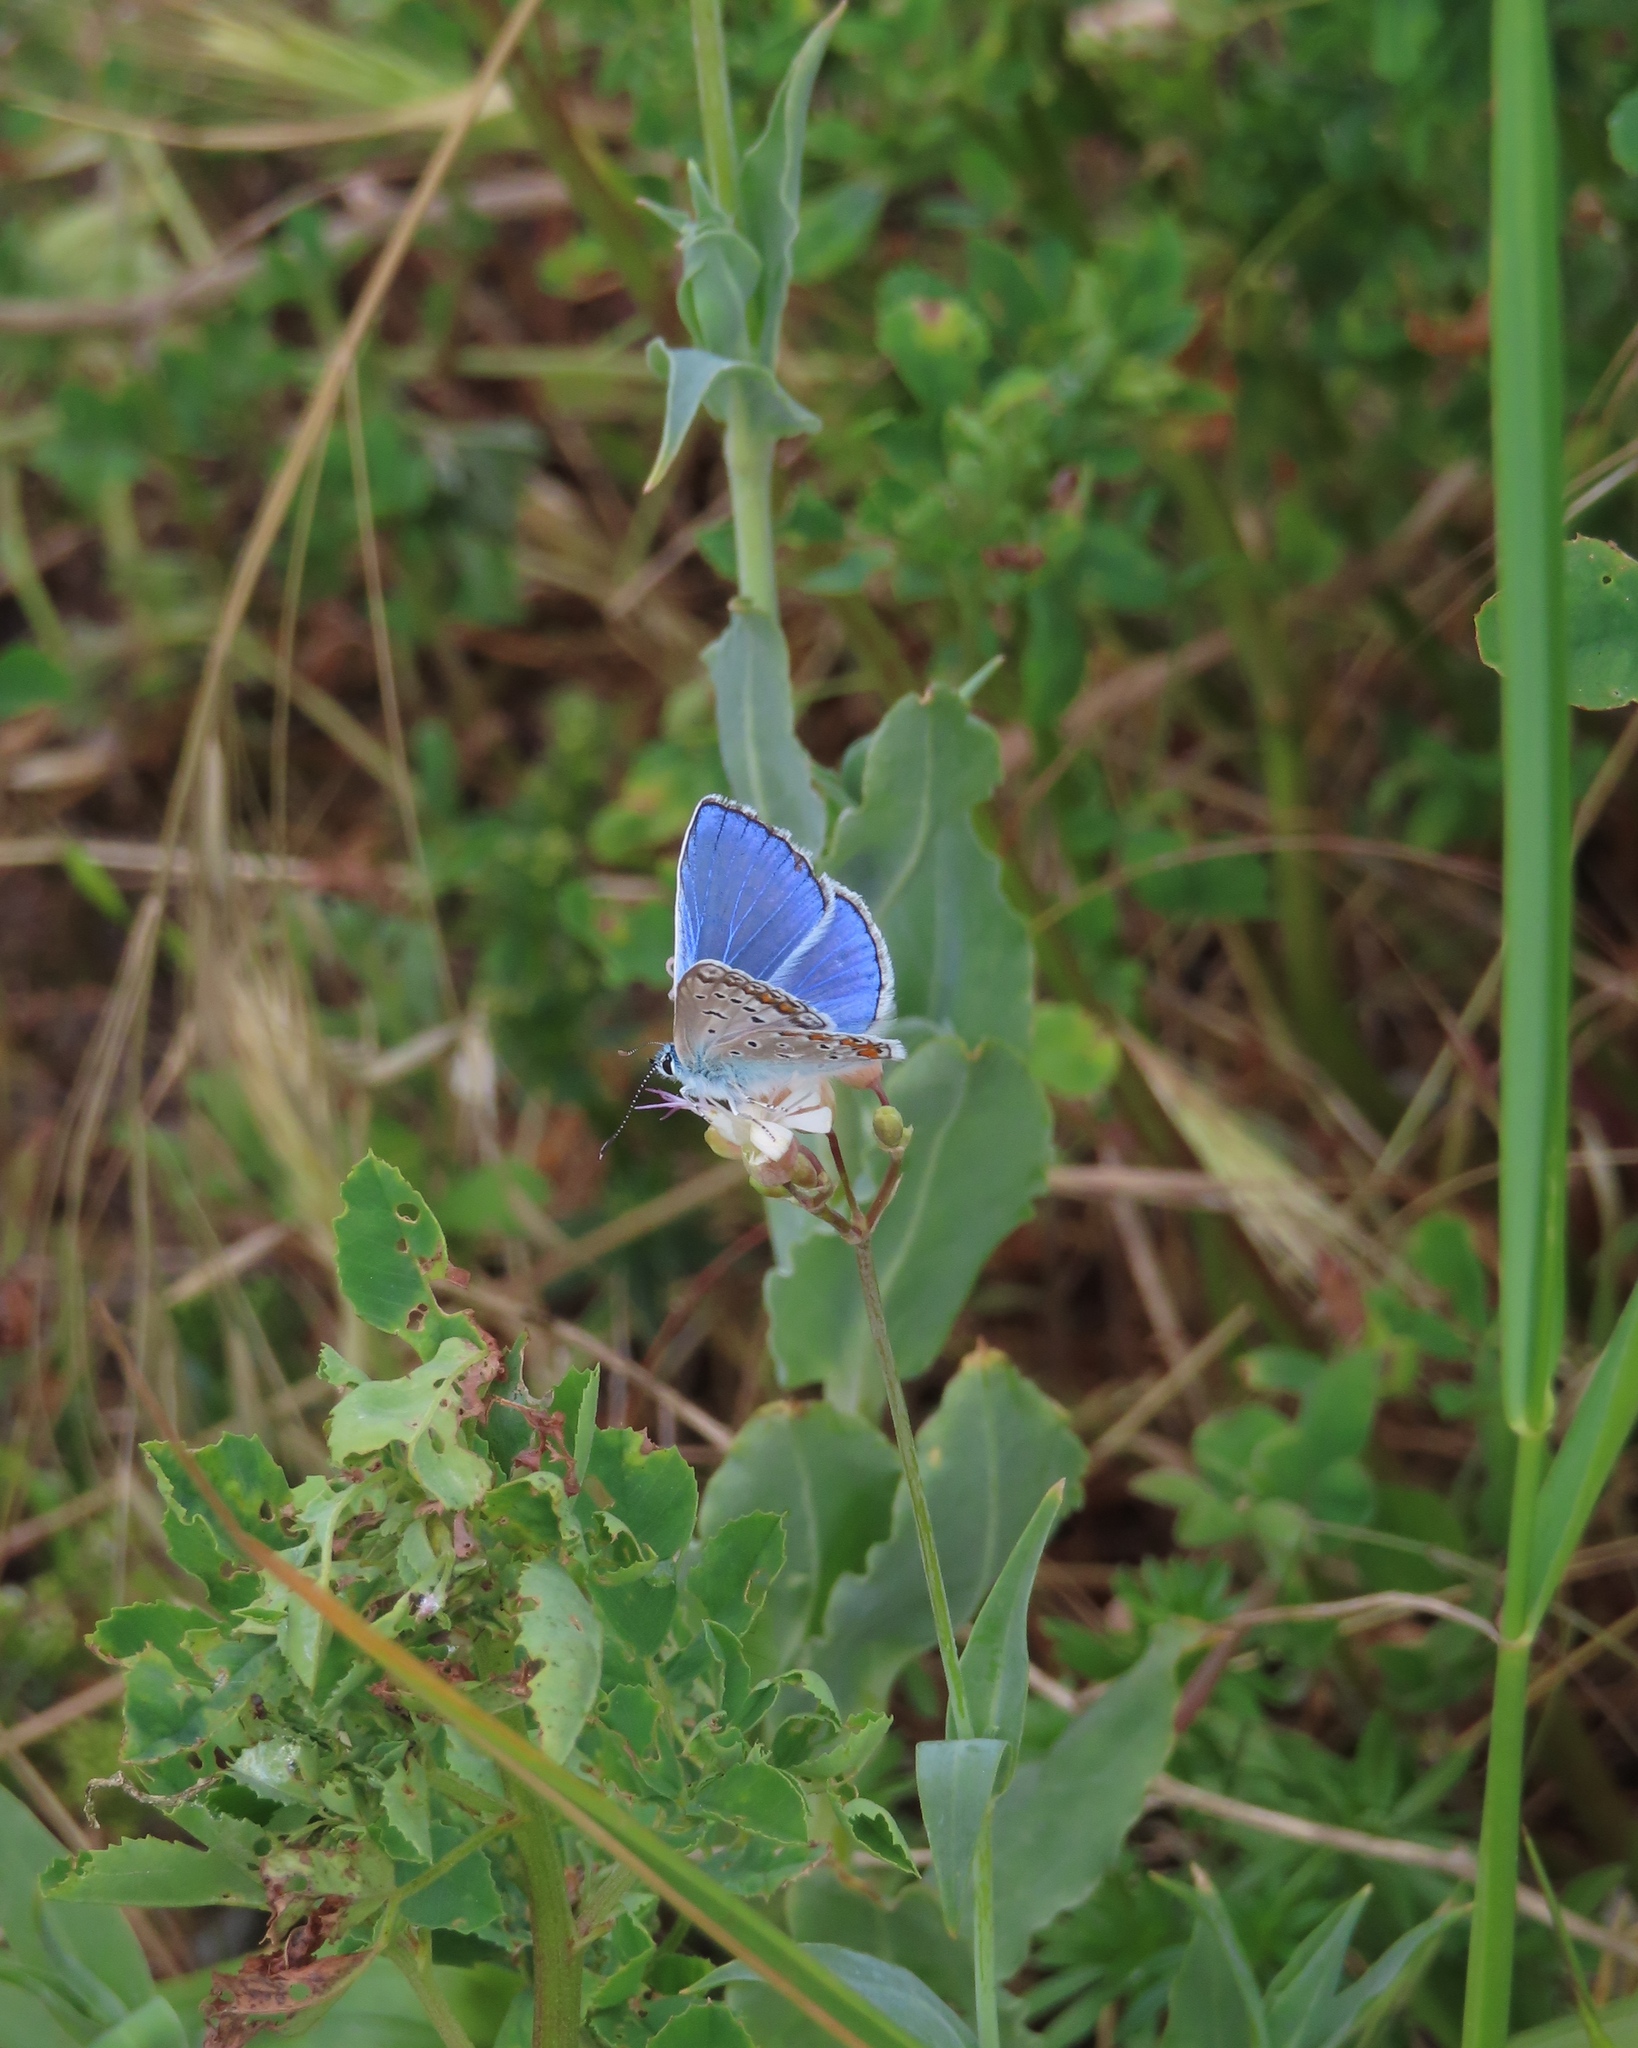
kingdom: Animalia
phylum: Arthropoda
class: Insecta
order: Lepidoptera
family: Lycaenidae
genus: Polyommatus
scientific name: Polyommatus icarus
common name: Common blue
